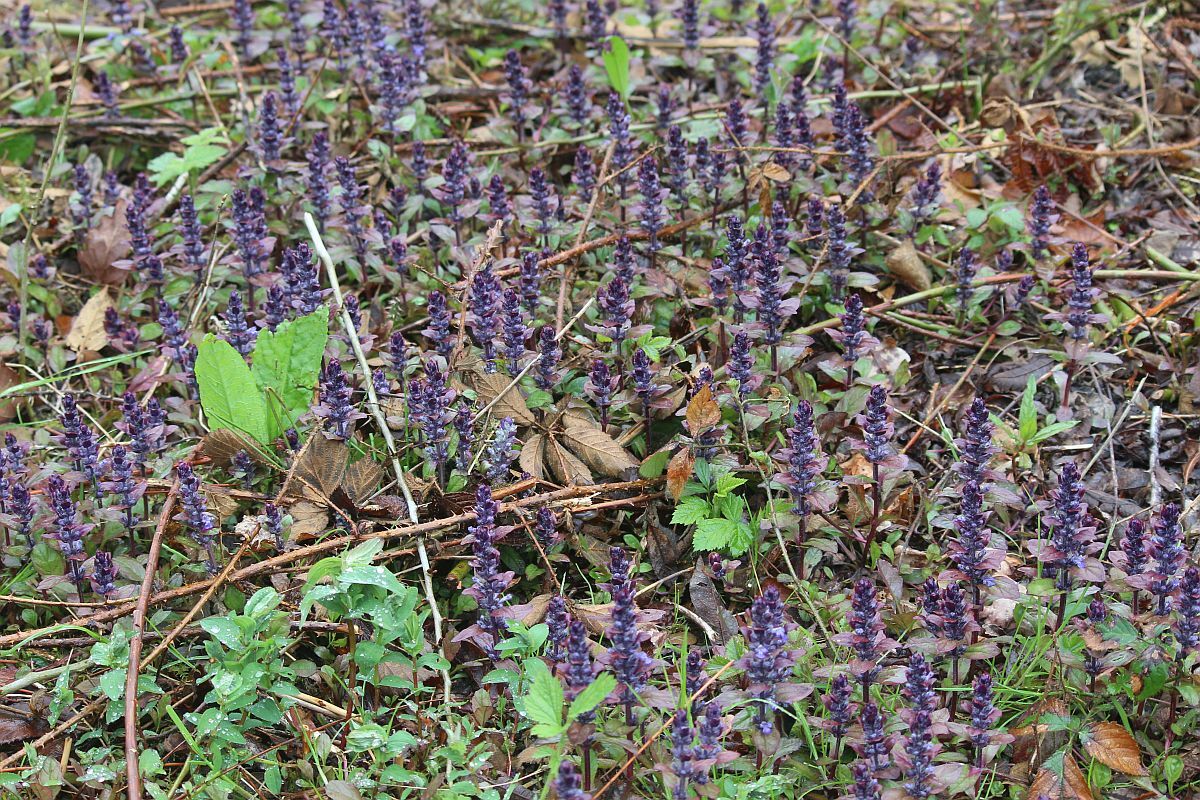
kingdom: Plantae
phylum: Tracheophyta
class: Magnoliopsida
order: Lamiales
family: Lamiaceae
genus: Ajuga
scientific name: Ajuga reptans
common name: Bugle
